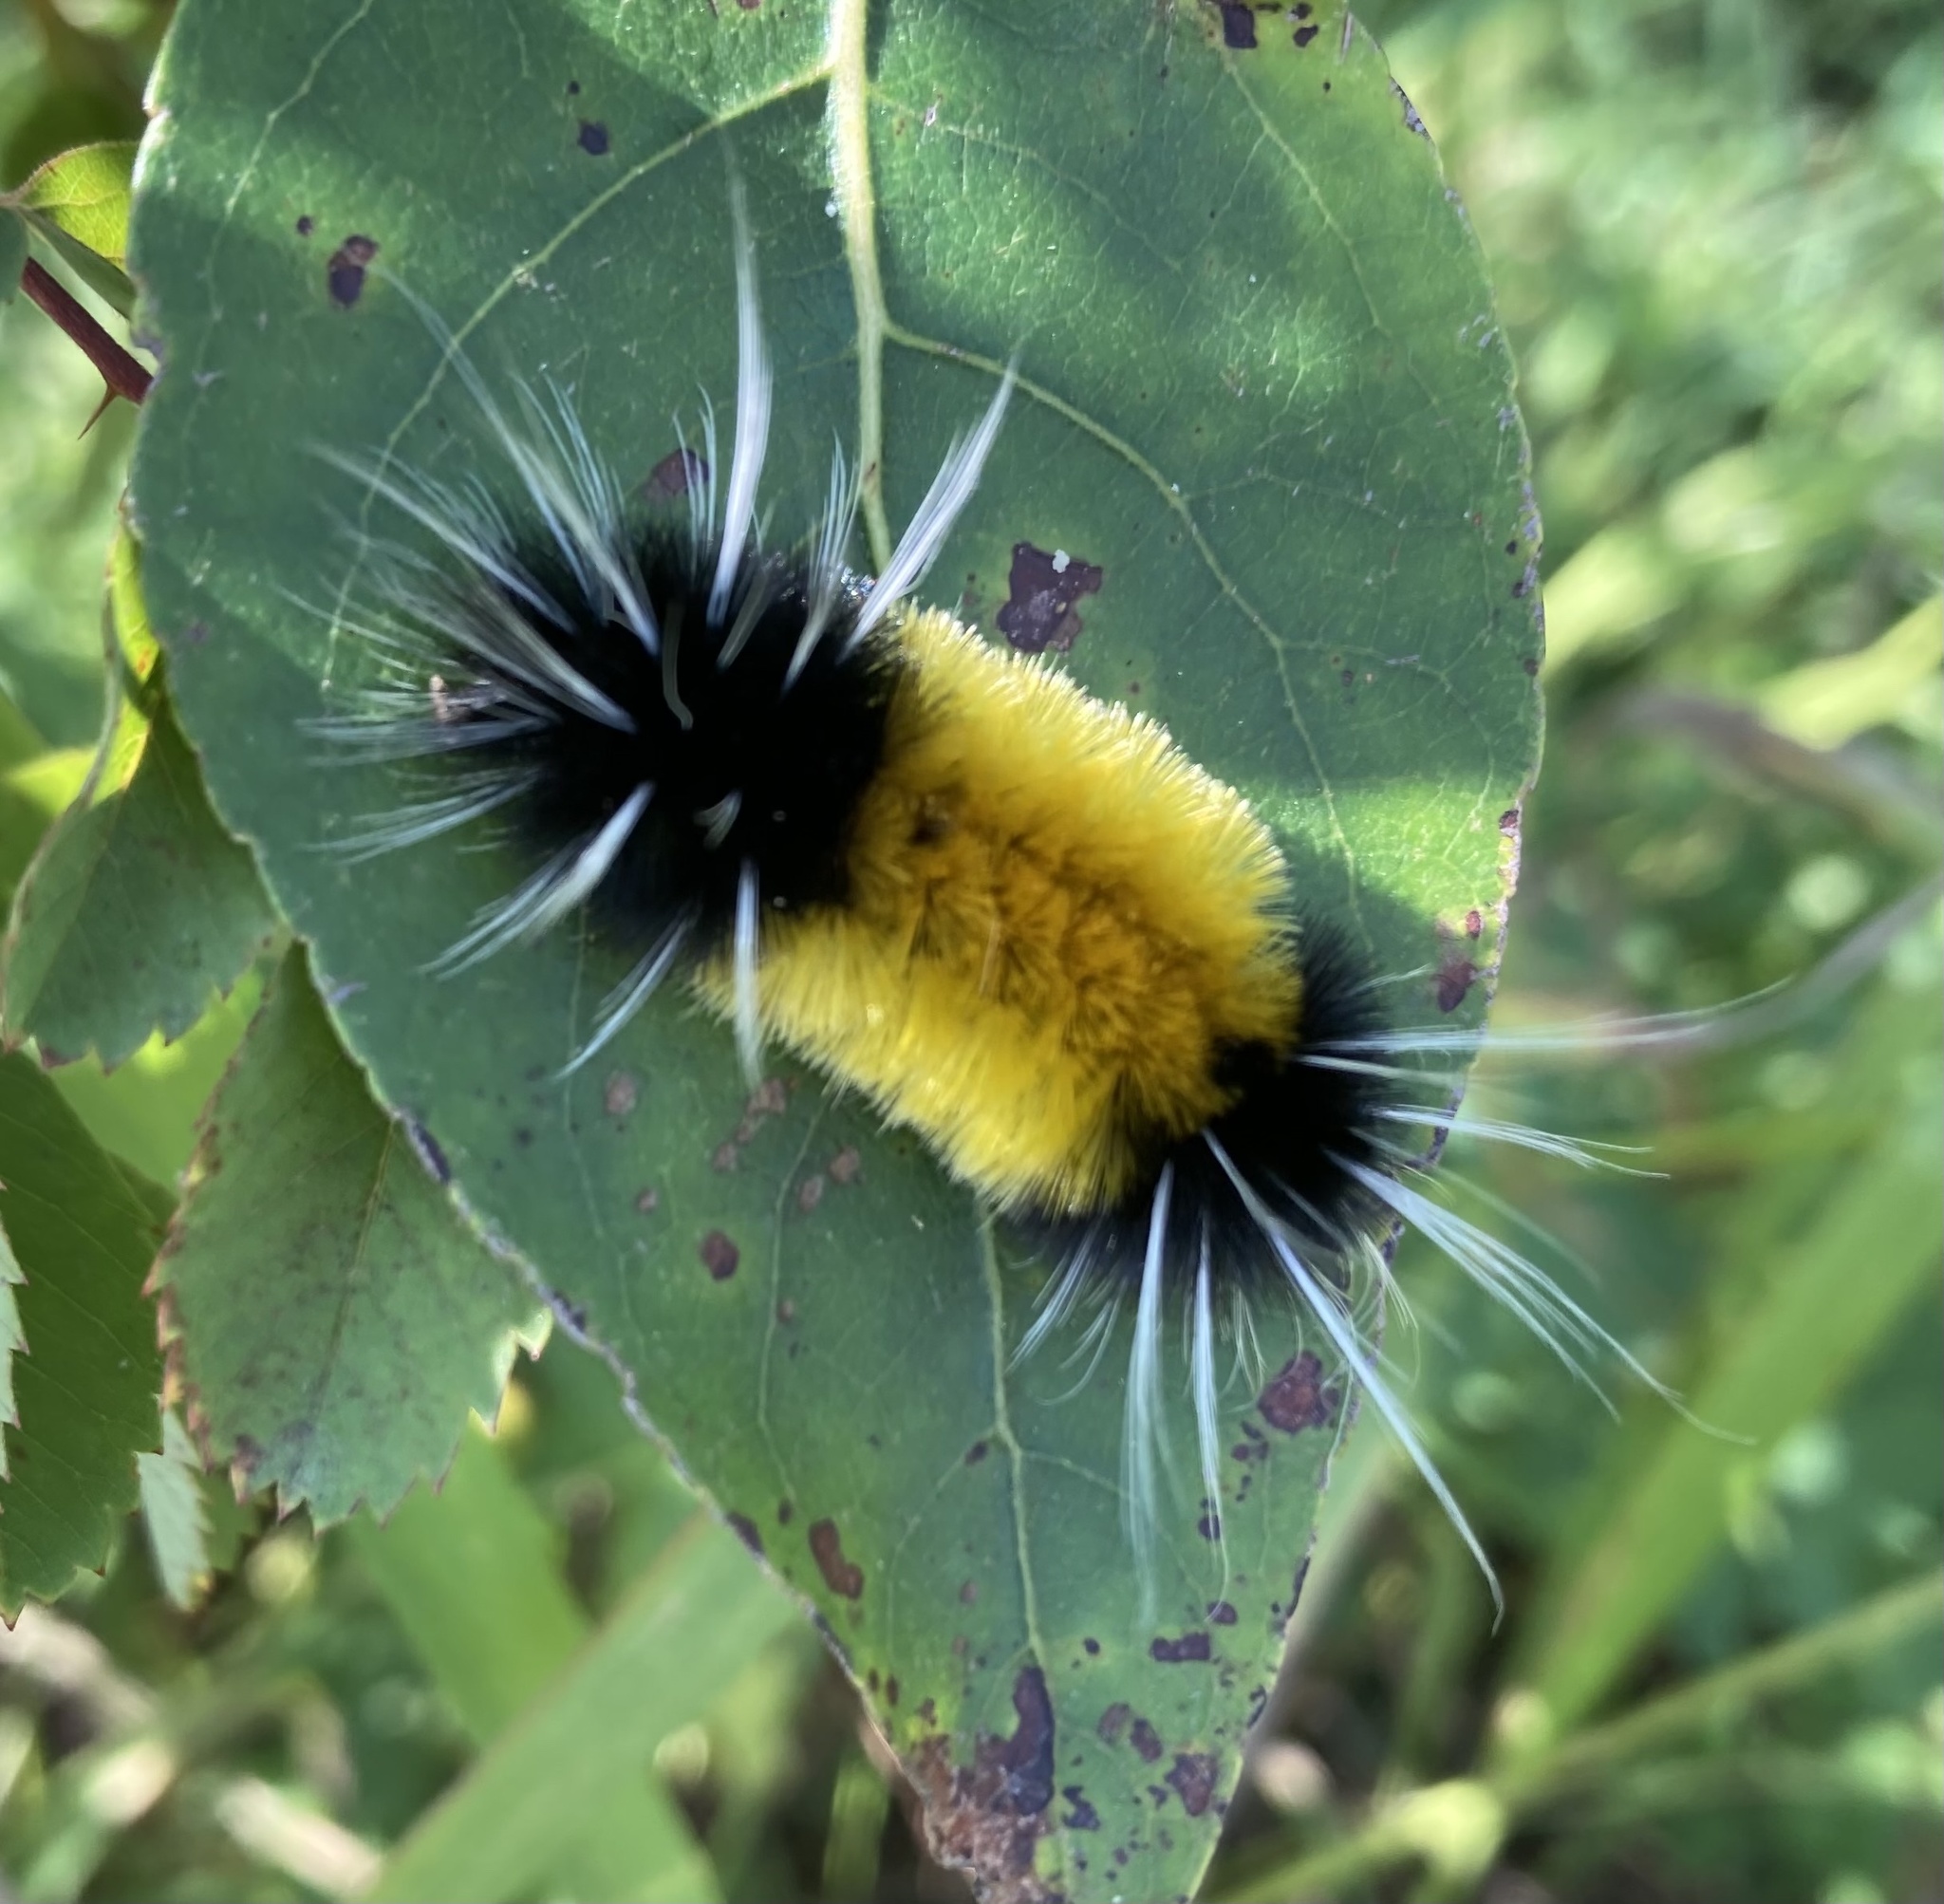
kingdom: Animalia
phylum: Arthropoda
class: Insecta
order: Lepidoptera
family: Erebidae
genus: Lophocampa
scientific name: Lophocampa maculata
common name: Spotted tussock moth
